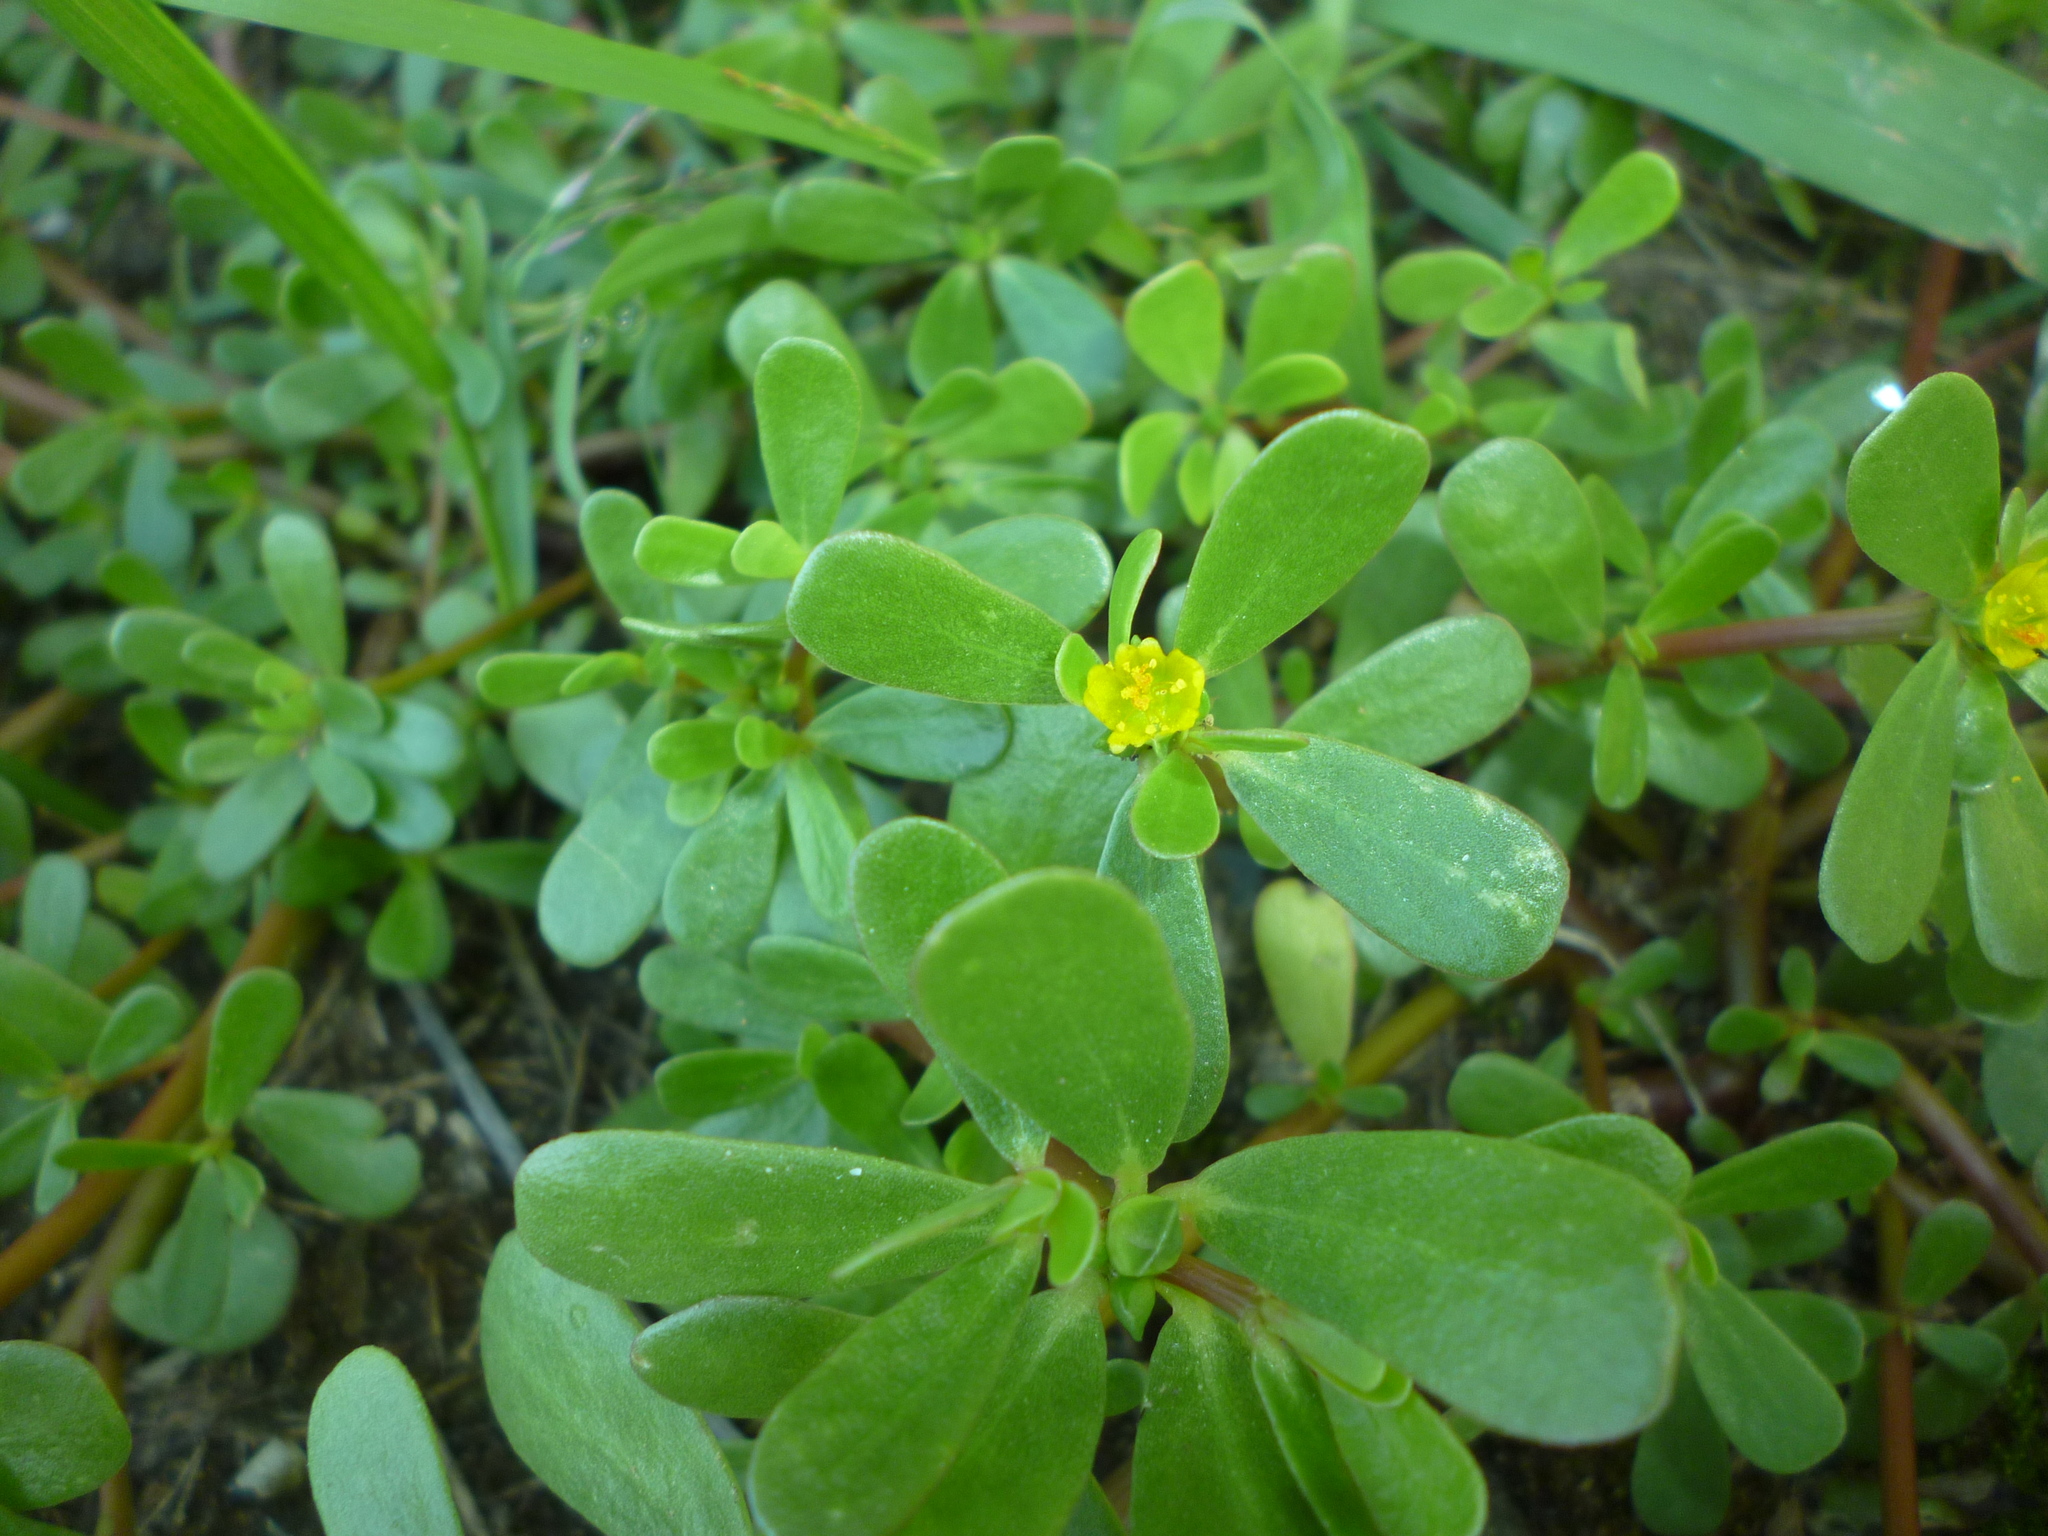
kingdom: Plantae
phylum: Tracheophyta
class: Magnoliopsida
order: Caryophyllales
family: Portulacaceae
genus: Portulaca
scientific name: Portulaca oleracea
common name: Common purslane
